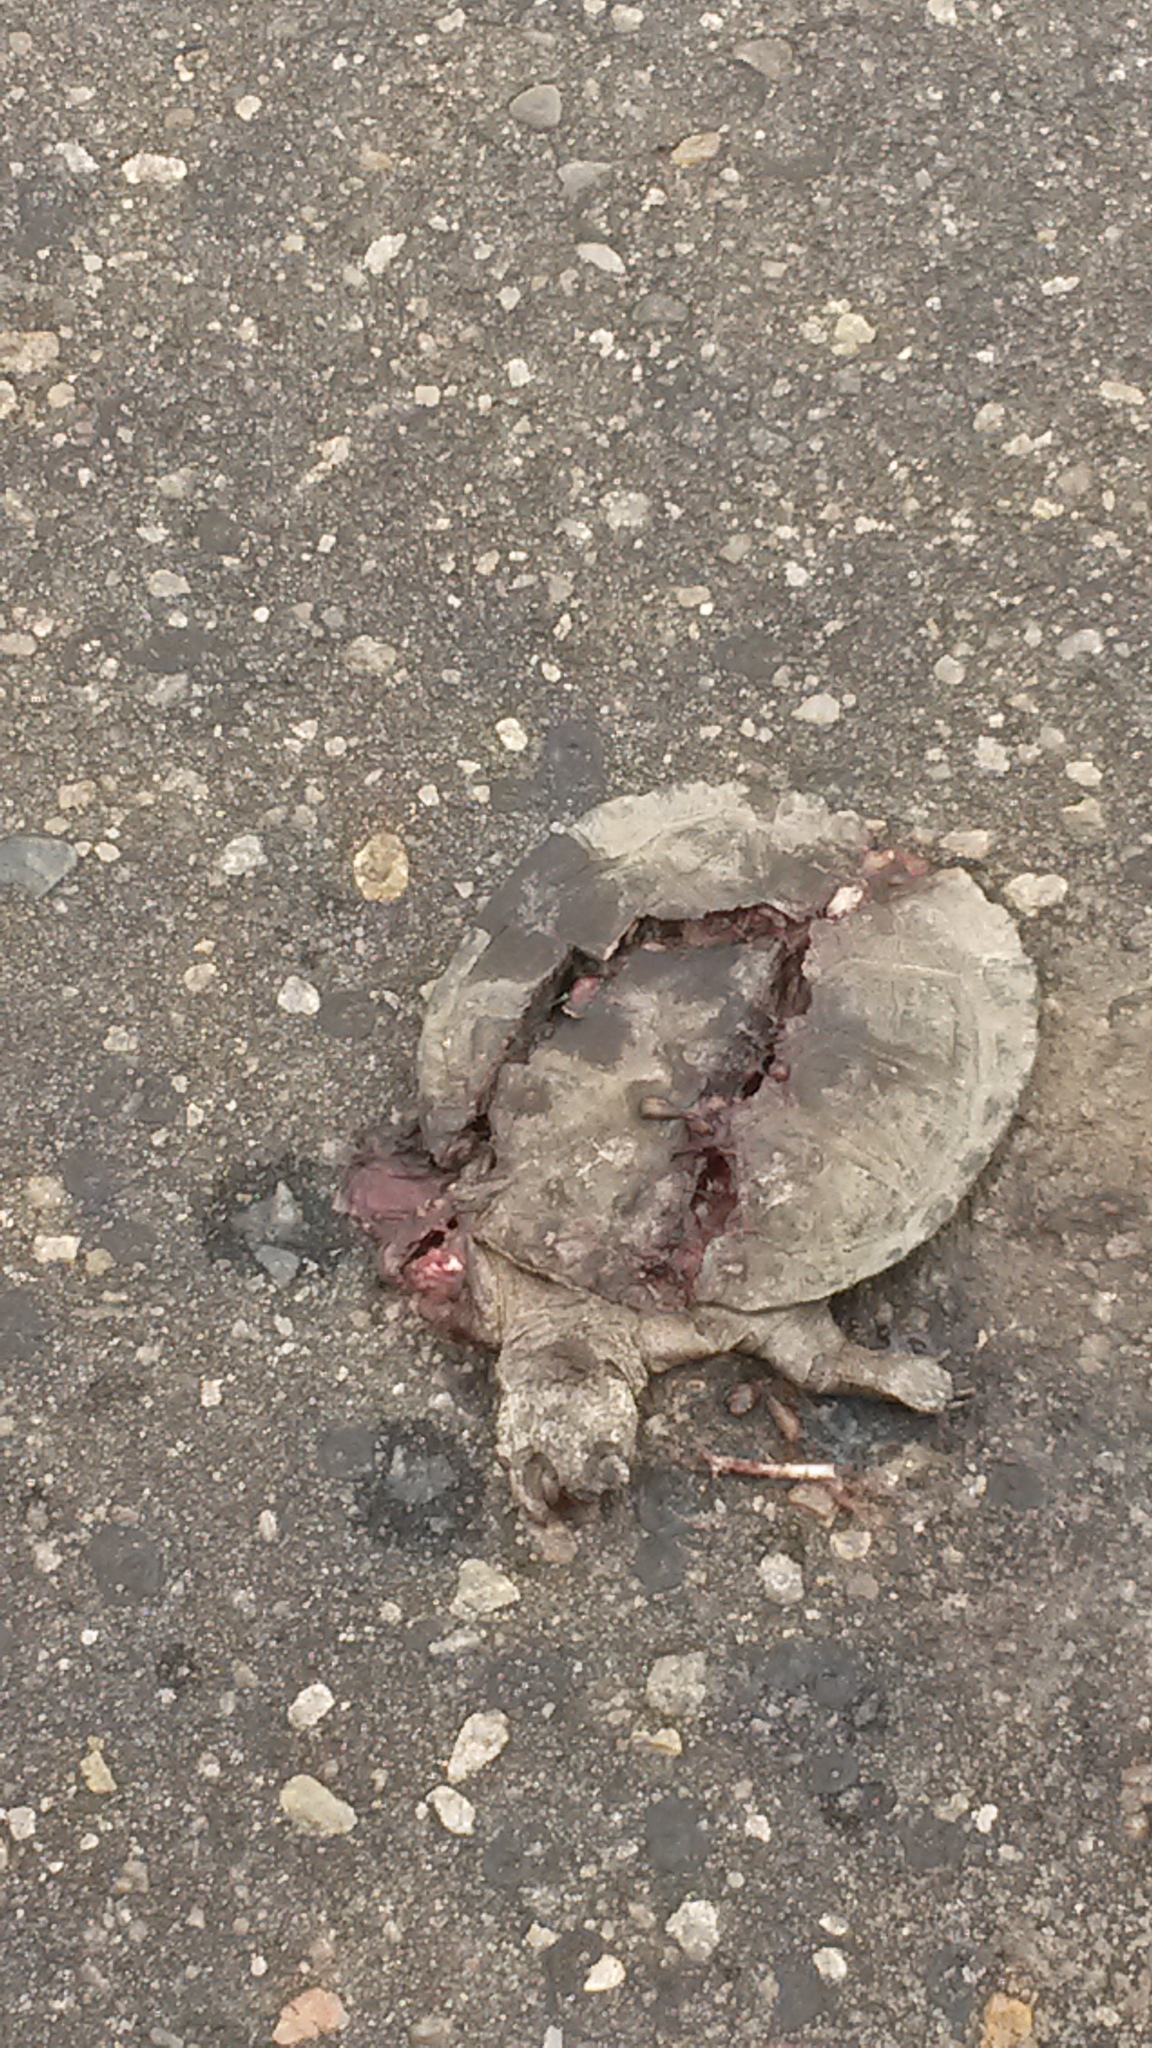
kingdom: Animalia
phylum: Chordata
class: Testudines
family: Pelomedusidae
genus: Pelusios
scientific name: Pelusios sinuatus
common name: Serrated hinged terrapin
